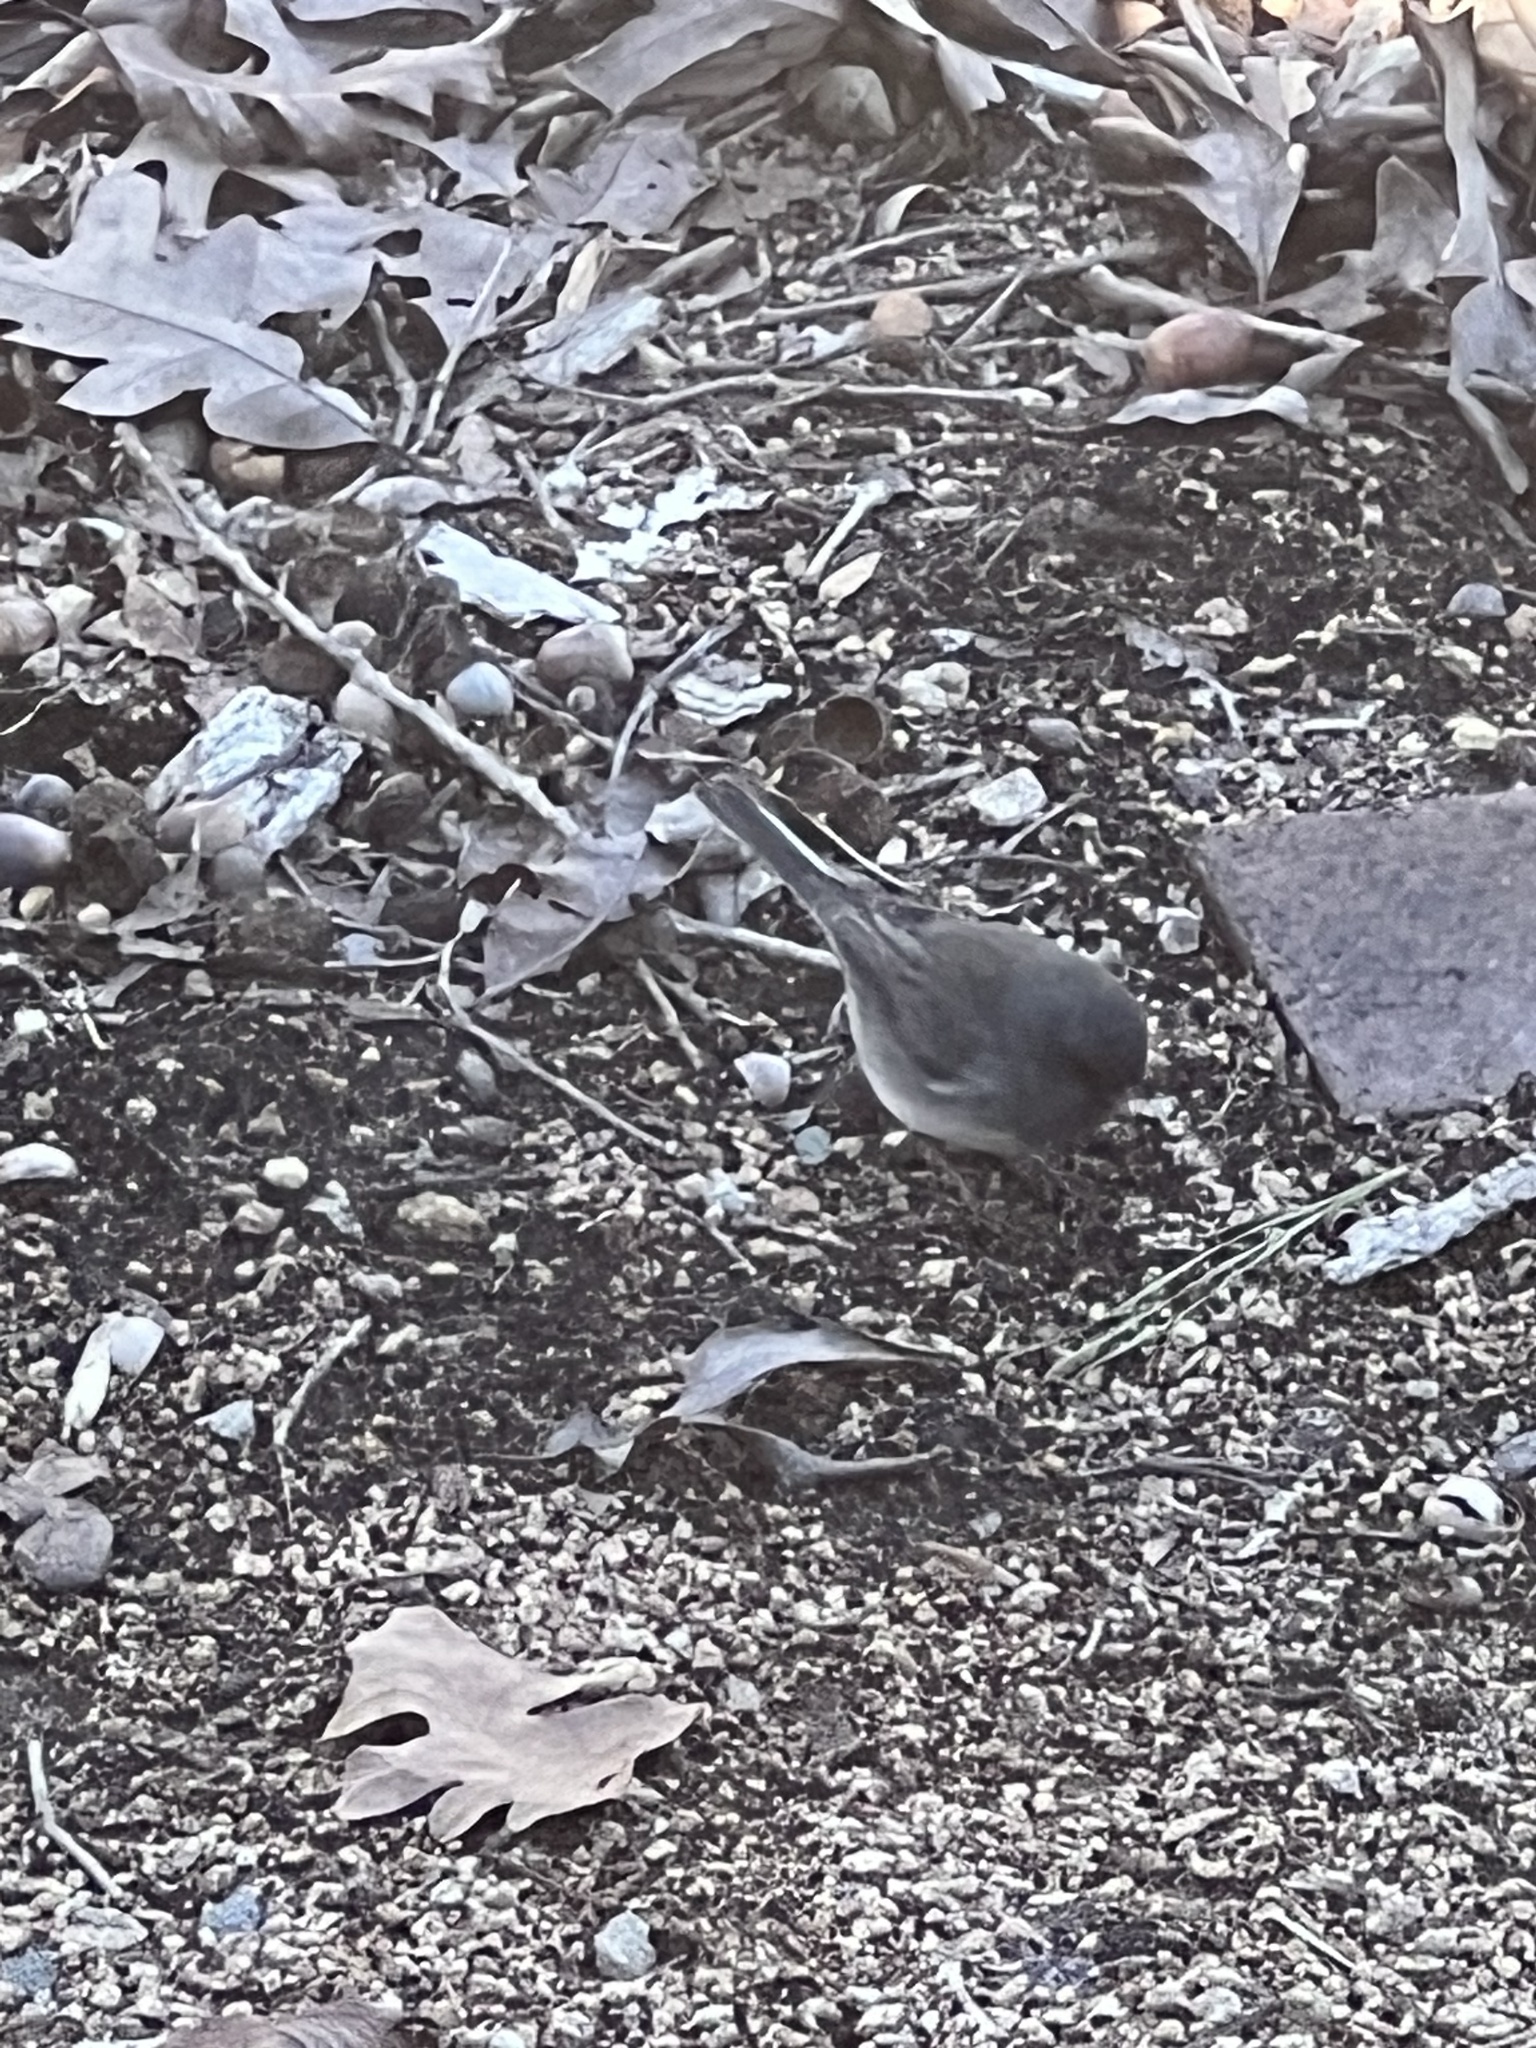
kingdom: Animalia
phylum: Chordata
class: Aves
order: Passeriformes
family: Passerellidae
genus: Junco
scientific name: Junco hyemalis
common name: Dark-eyed junco
